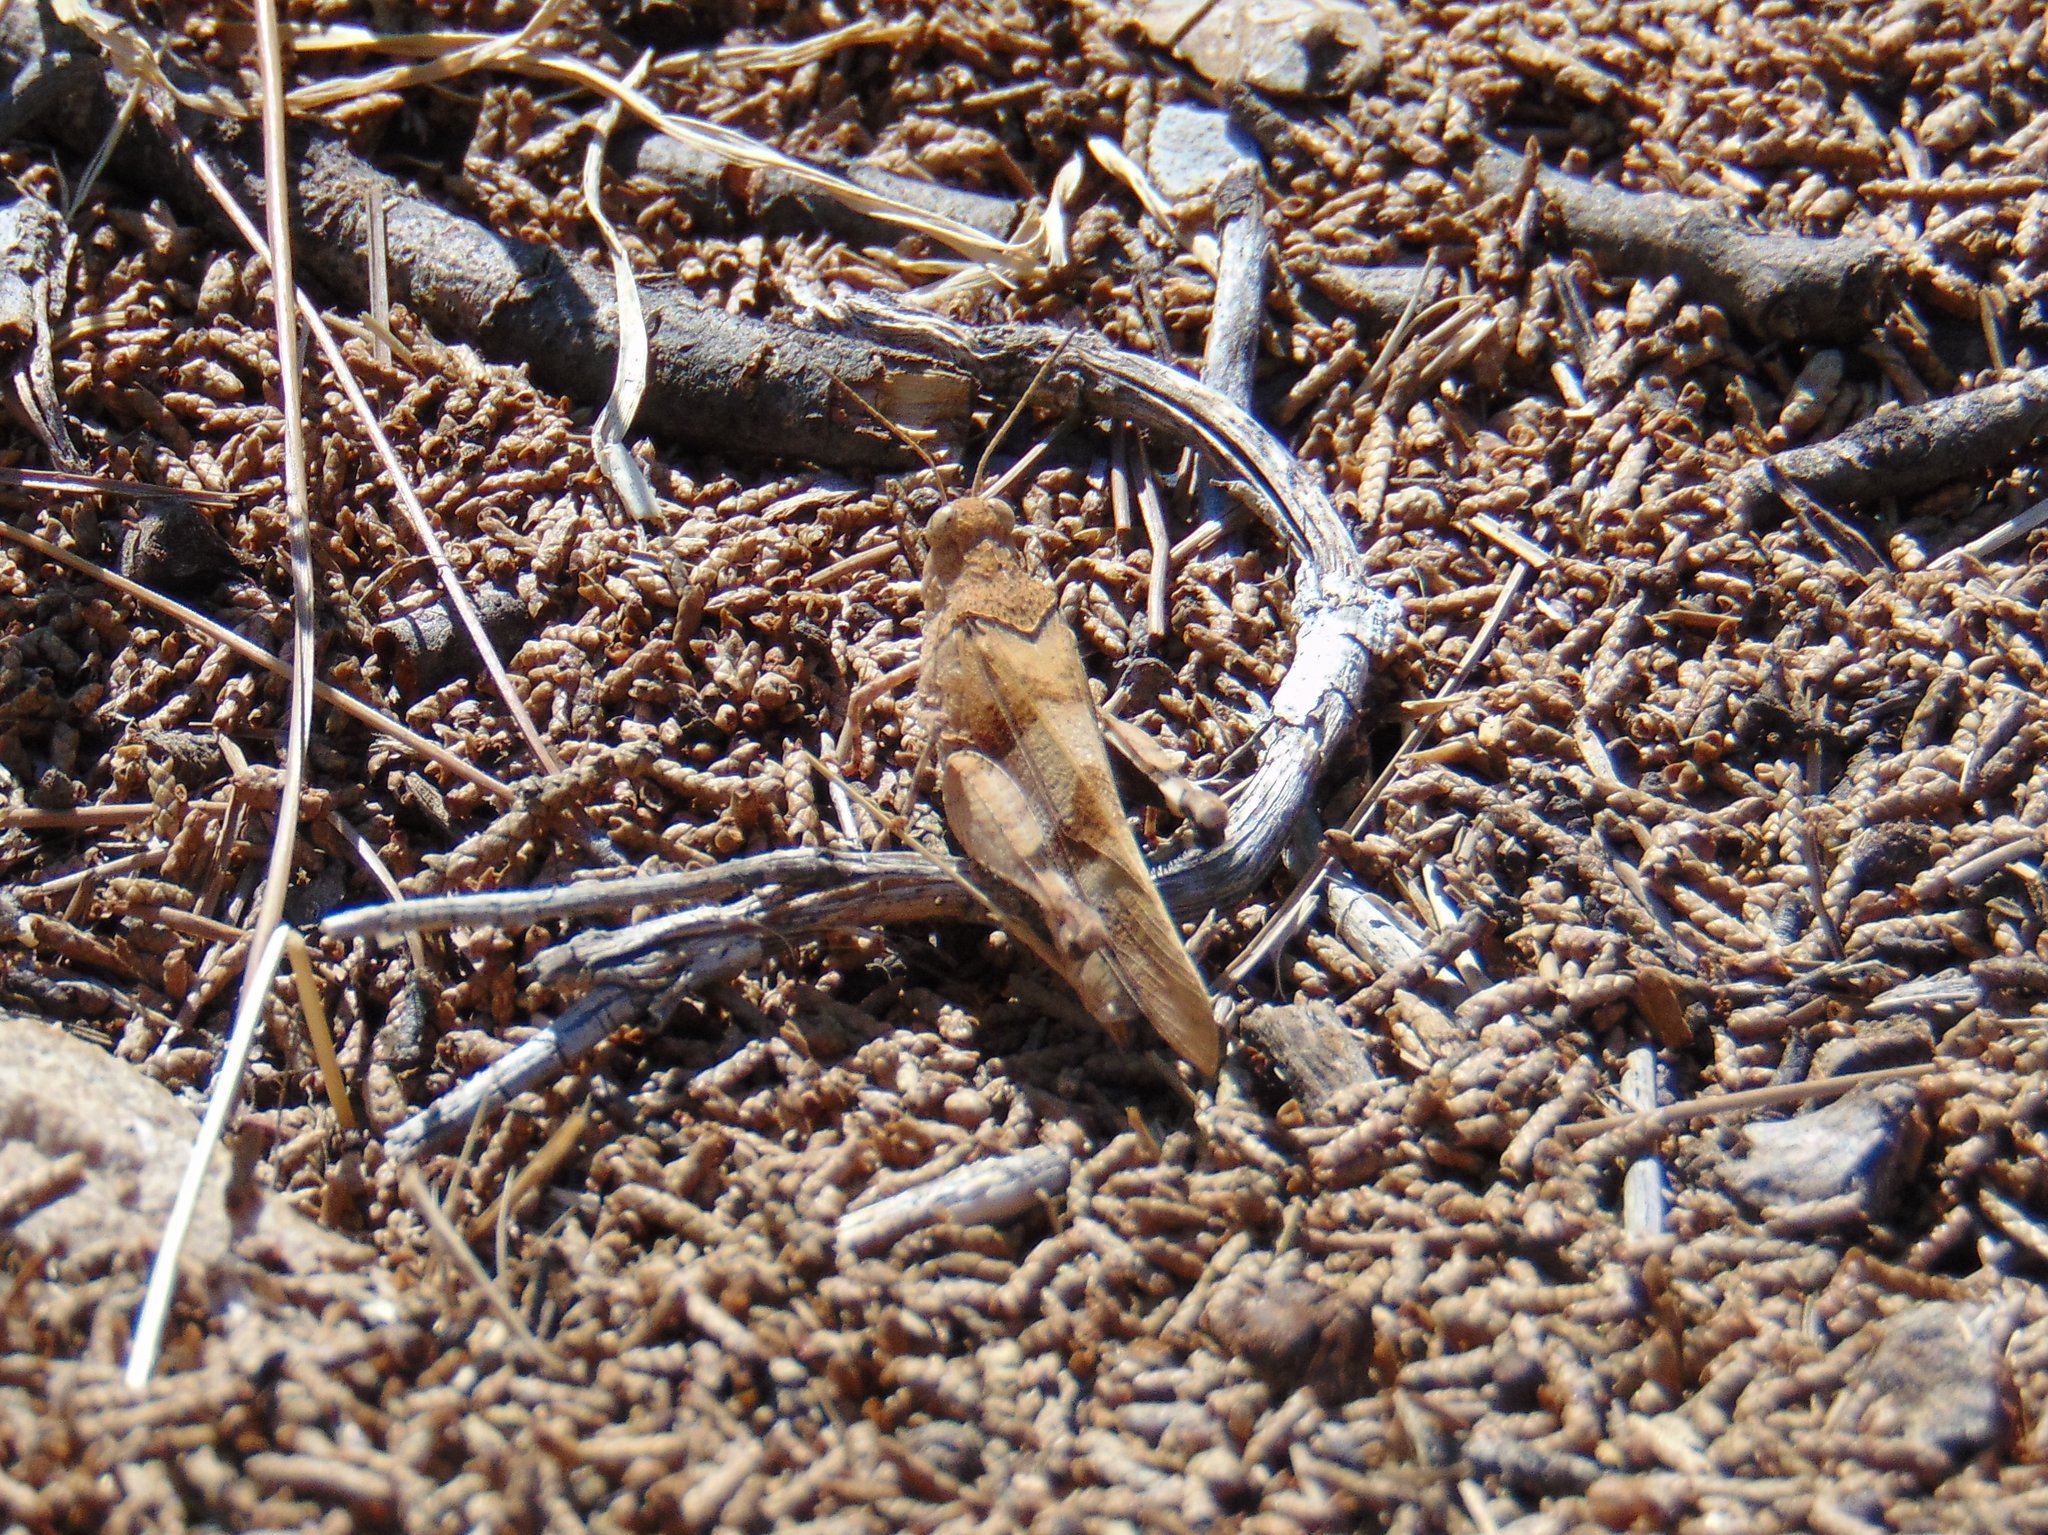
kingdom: Animalia
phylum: Arthropoda
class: Insecta
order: Orthoptera
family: Acrididae
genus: Oedipoda
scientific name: Oedipoda caerulescens
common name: Blue-winged grasshopper
